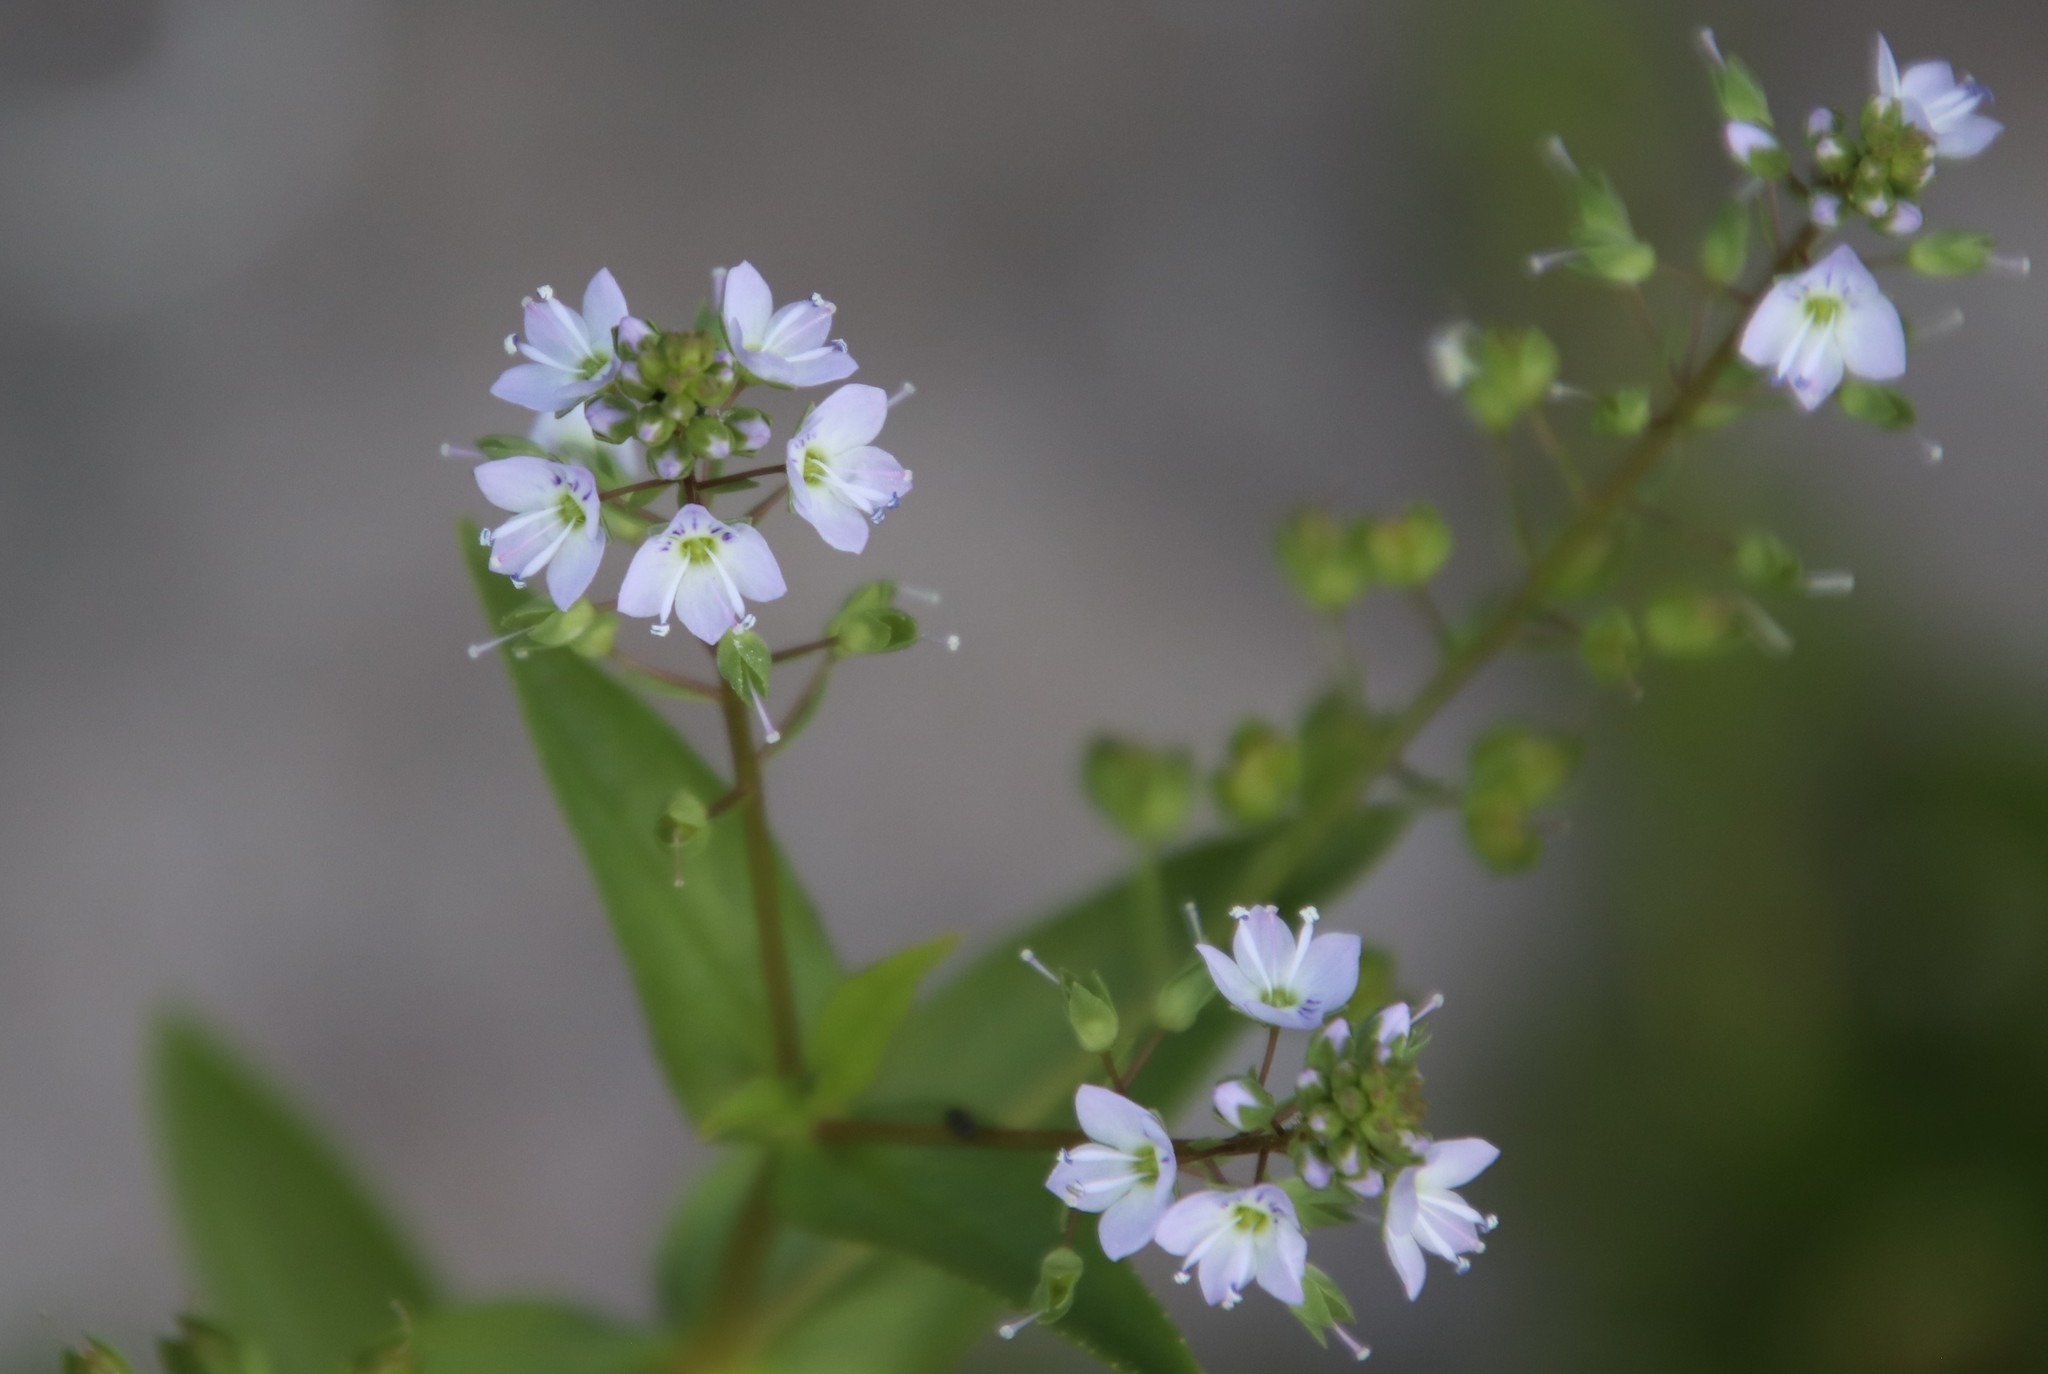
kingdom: Plantae
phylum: Tracheophyta
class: Magnoliopsida
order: Lamiales
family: Plantaginaceae
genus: Veronica
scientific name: Veronica anagallis-aquatica
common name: Water speedwell
